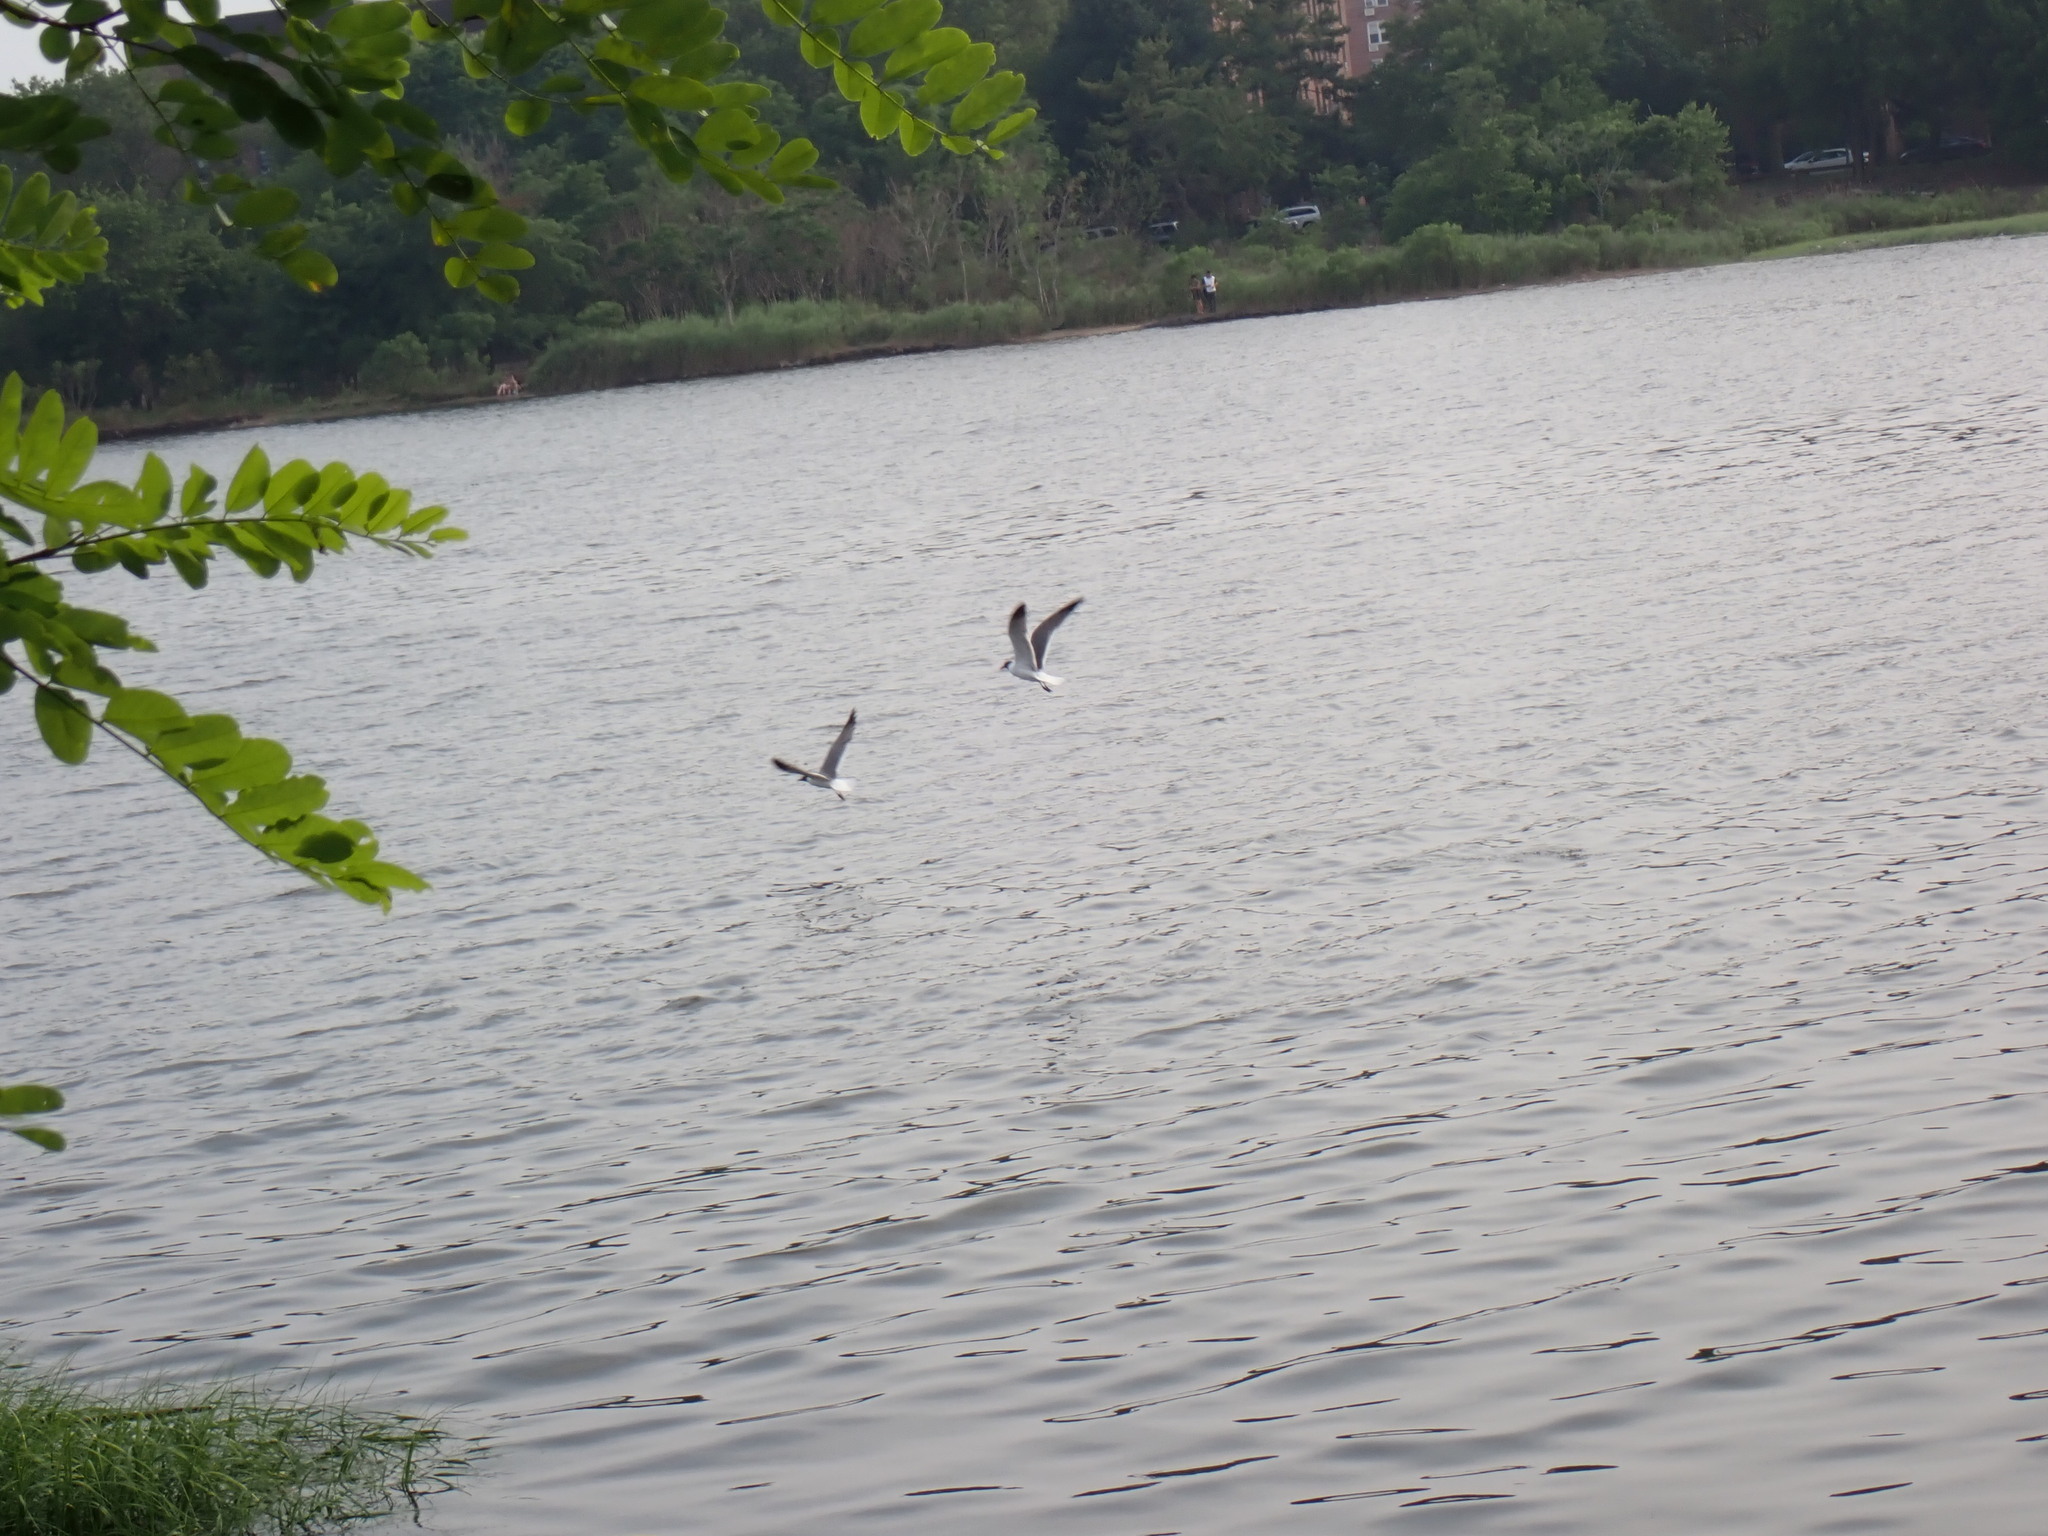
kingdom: Animalia
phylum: Chordata
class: Aves
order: Charadriiformes
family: Laridae
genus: Leucophaeus
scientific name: Leucophaeus atricilla
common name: Laughing gull
